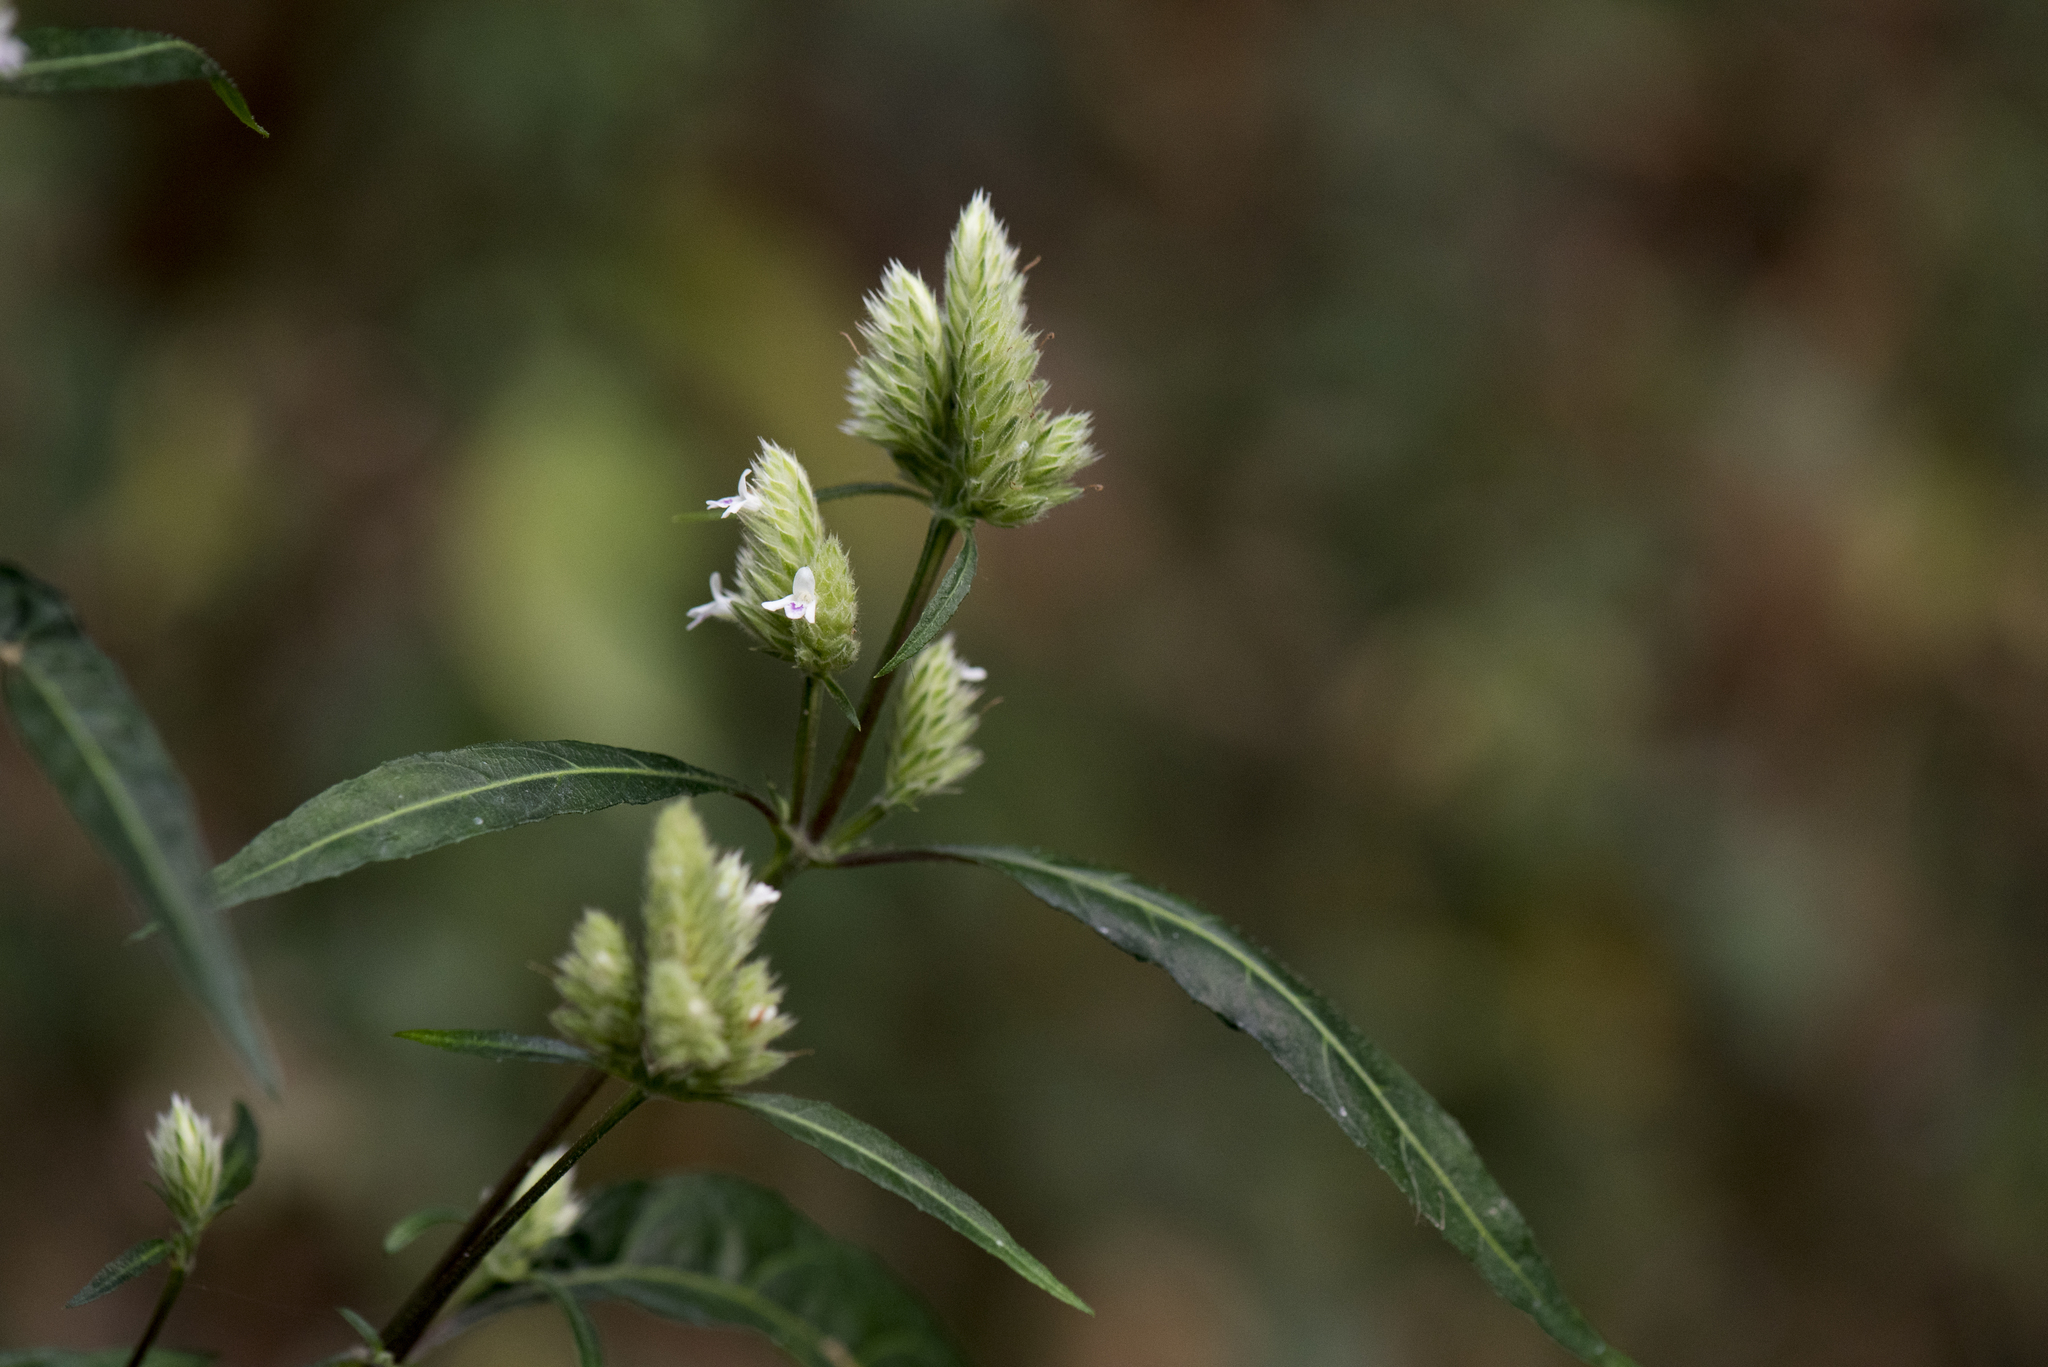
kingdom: Plantae
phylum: Tracheophyta
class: Magnoliopsida
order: Lamiales
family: Acanthaceae
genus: Lepidagathis
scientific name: Lepidagathis stenophylla
